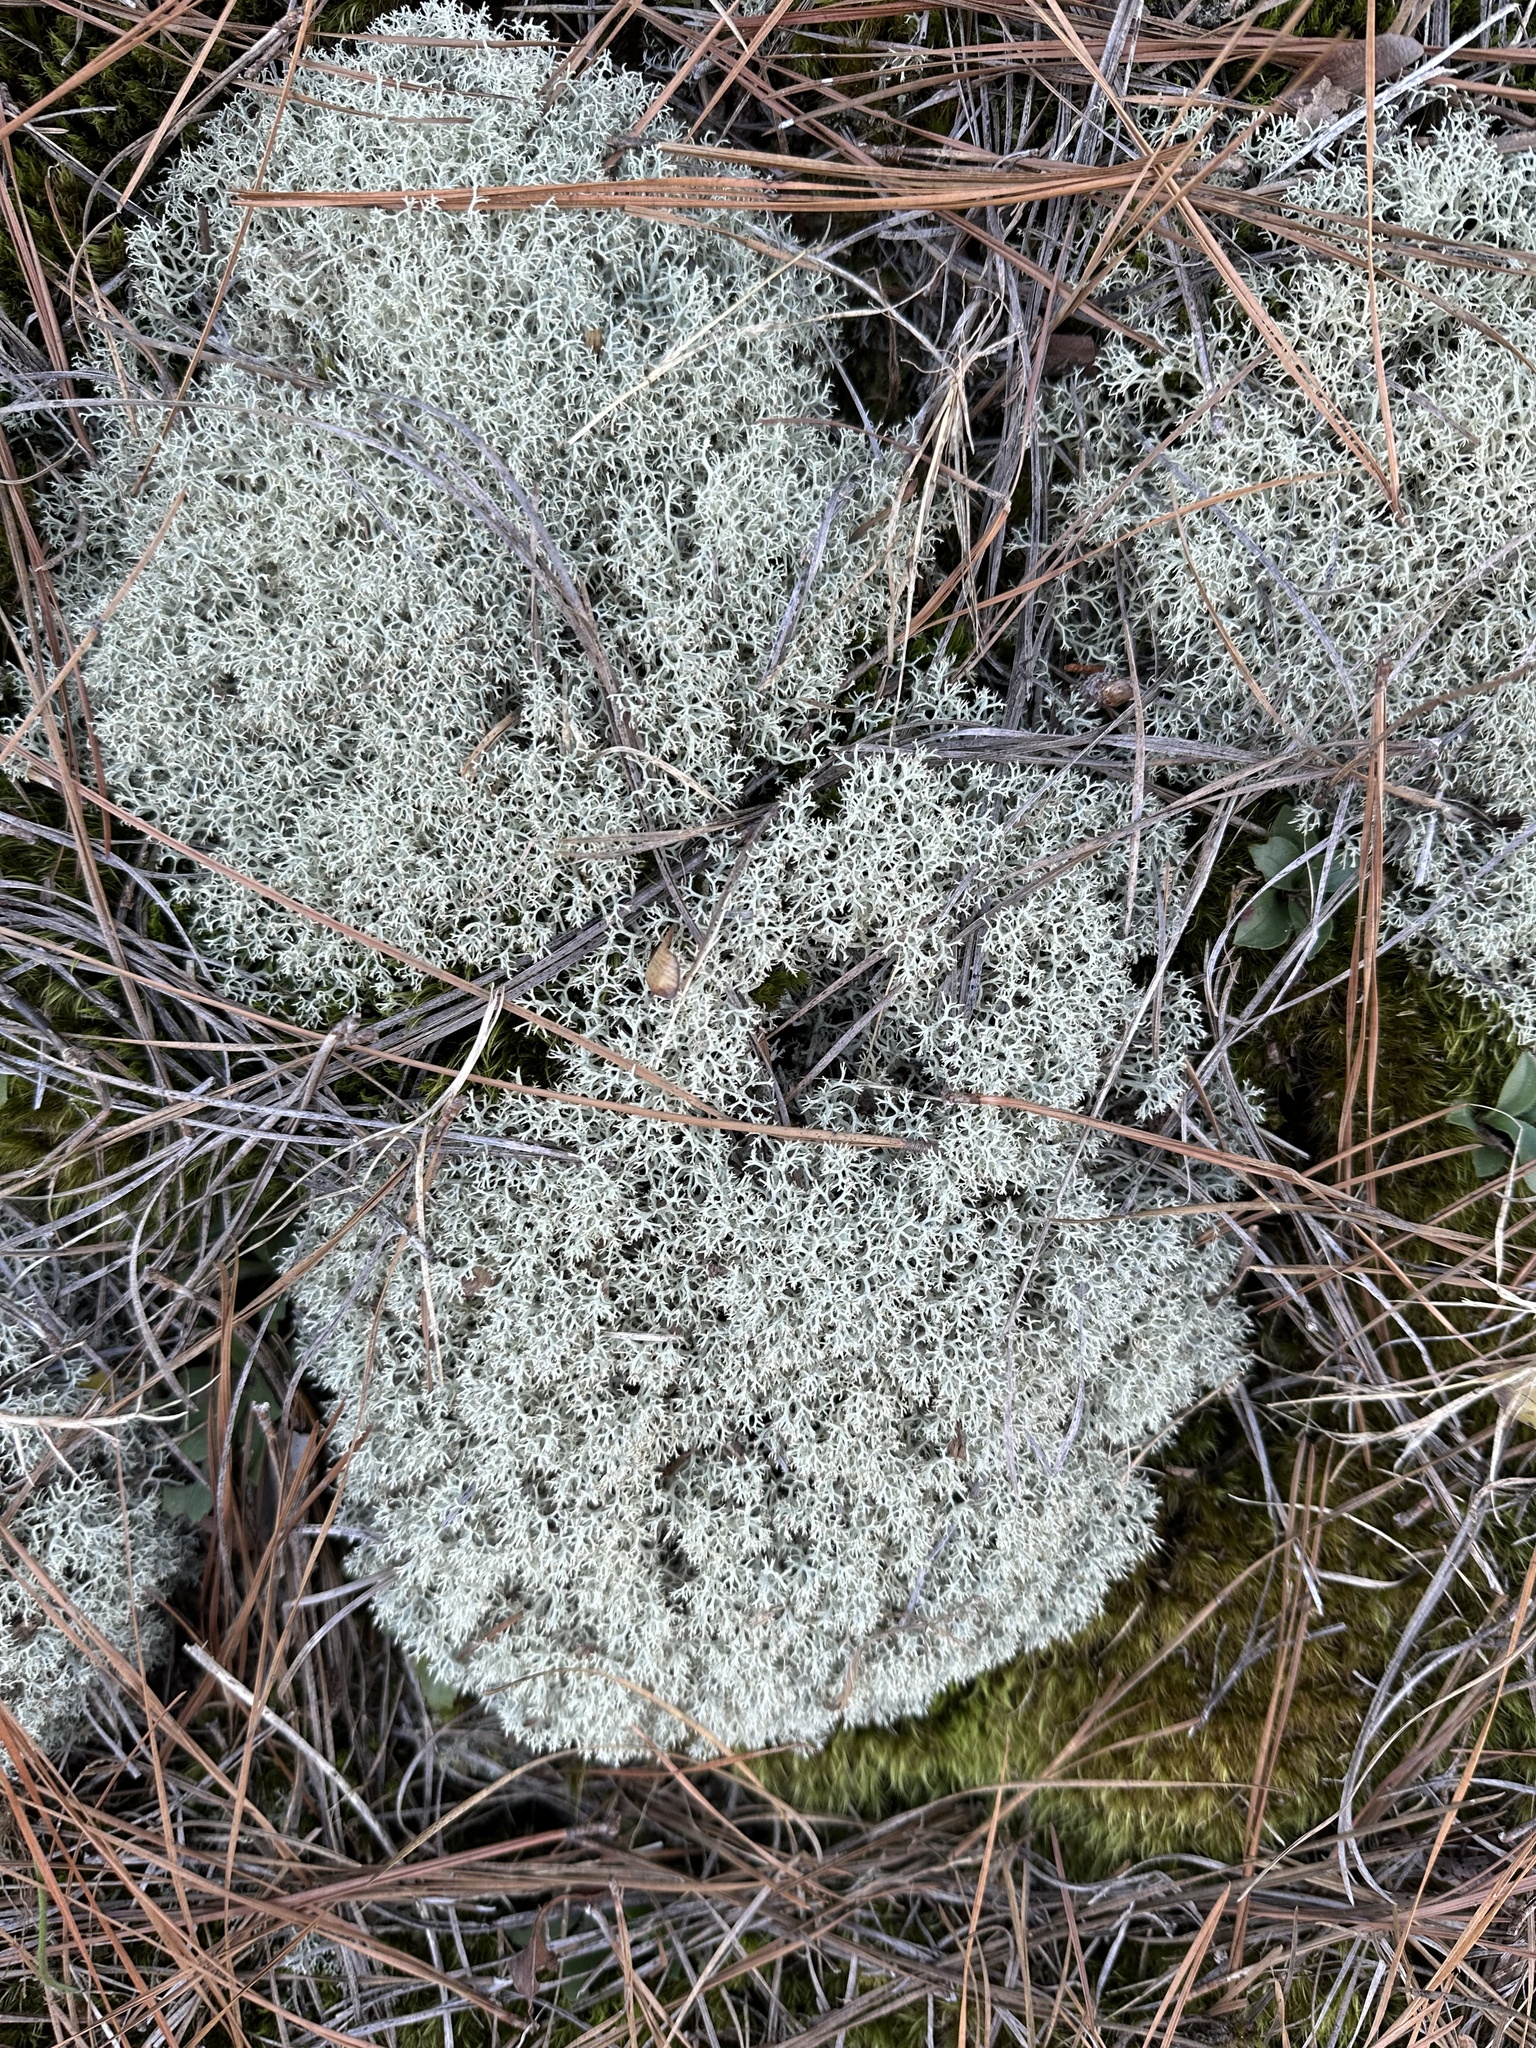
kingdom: Fungi
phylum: Ascomycota
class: Lecanoromycetes
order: Lecanorales
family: Cladoniaceae
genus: Cladonia
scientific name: Cladonia subtenuis
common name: Dixie reindeer lichen
